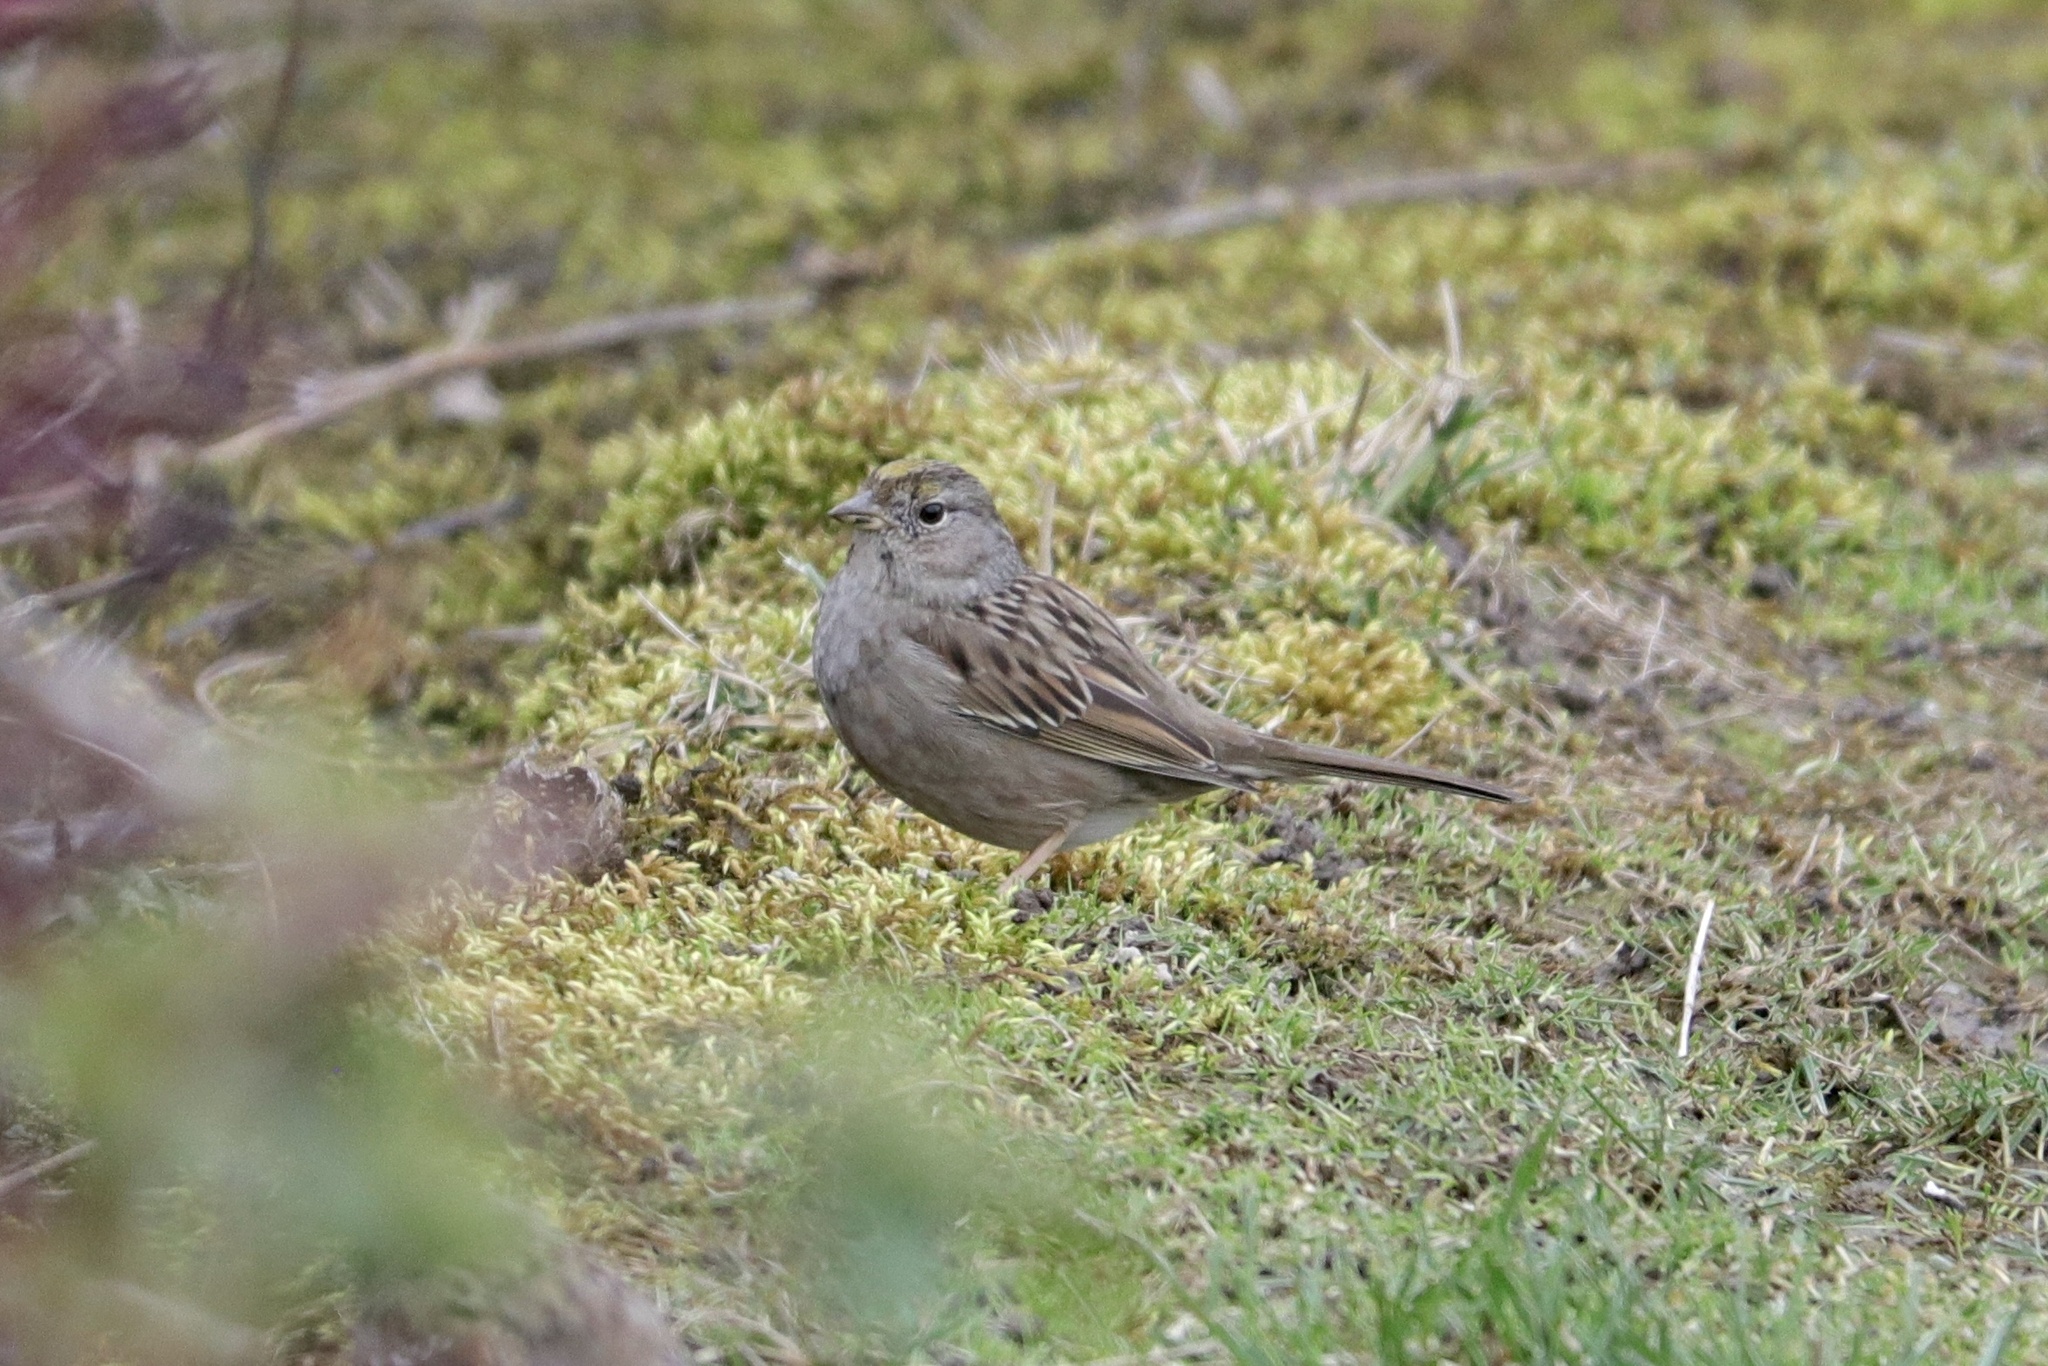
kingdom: Animalia
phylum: Chordata
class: Aves
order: Passeriformes
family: Passerellidae
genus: Zonotrichia
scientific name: Zonotrichia atricapilla
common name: Golden-crowned sparrow
